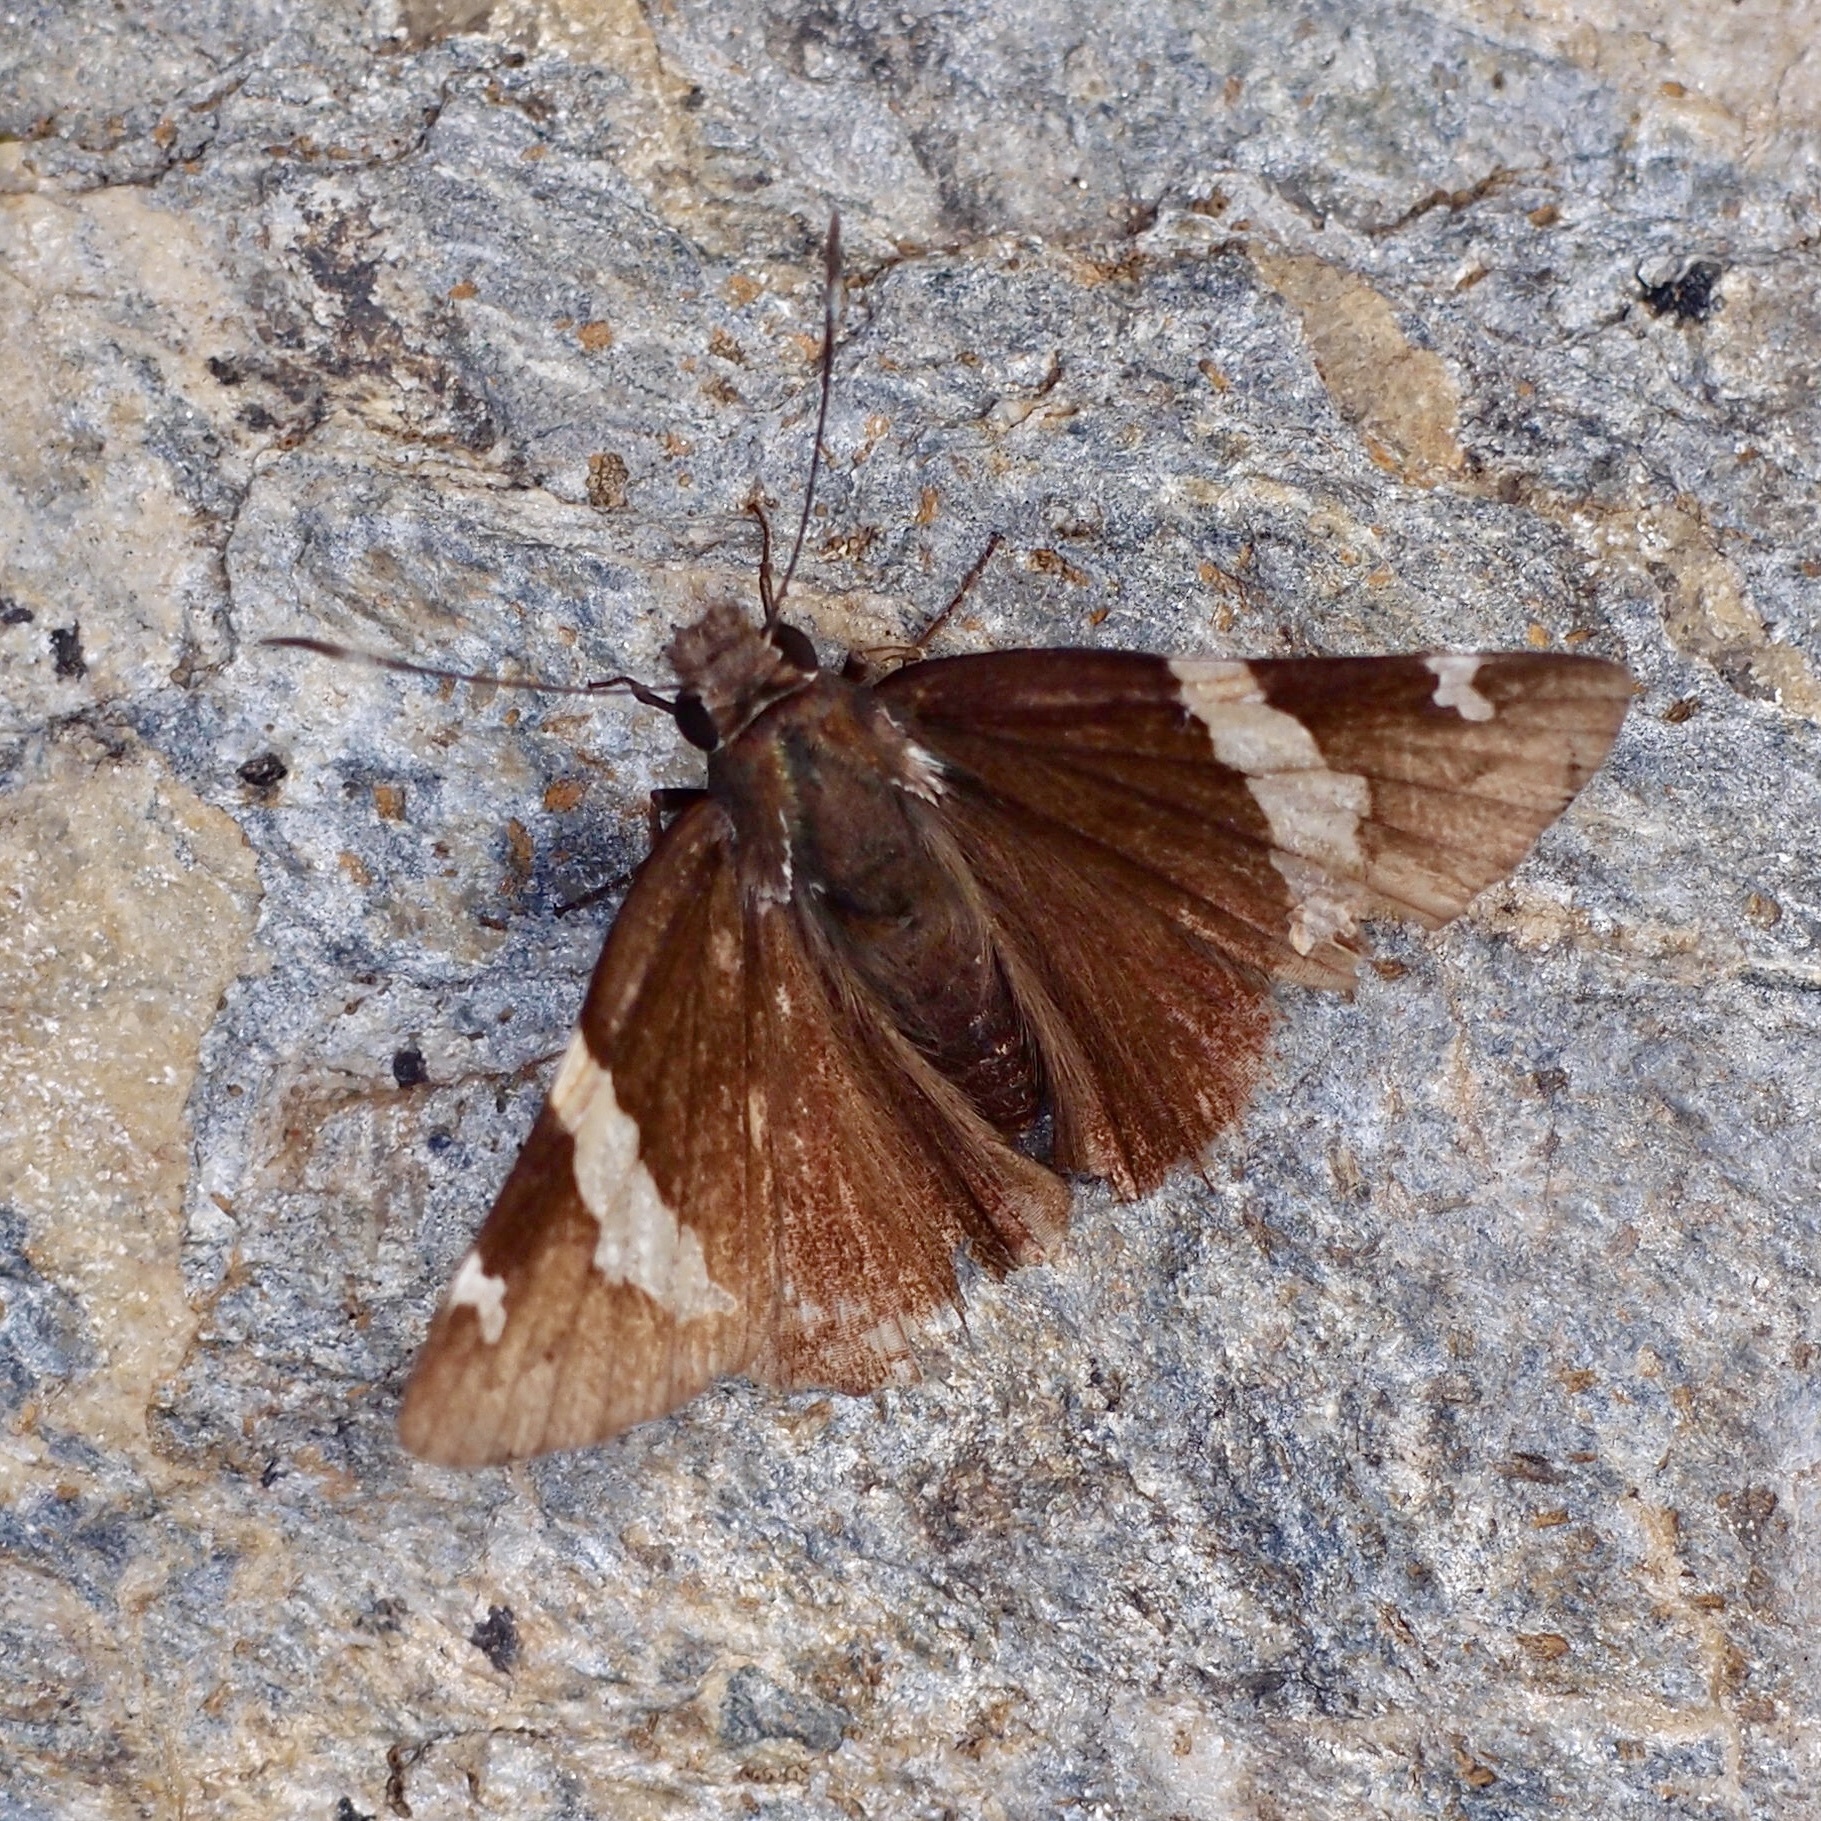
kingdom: Animalia
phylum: Arthropoda
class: Insecta
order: Lepidoptera
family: Hesperiidae
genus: Thorybes
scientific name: Thorybes pseudocellus
